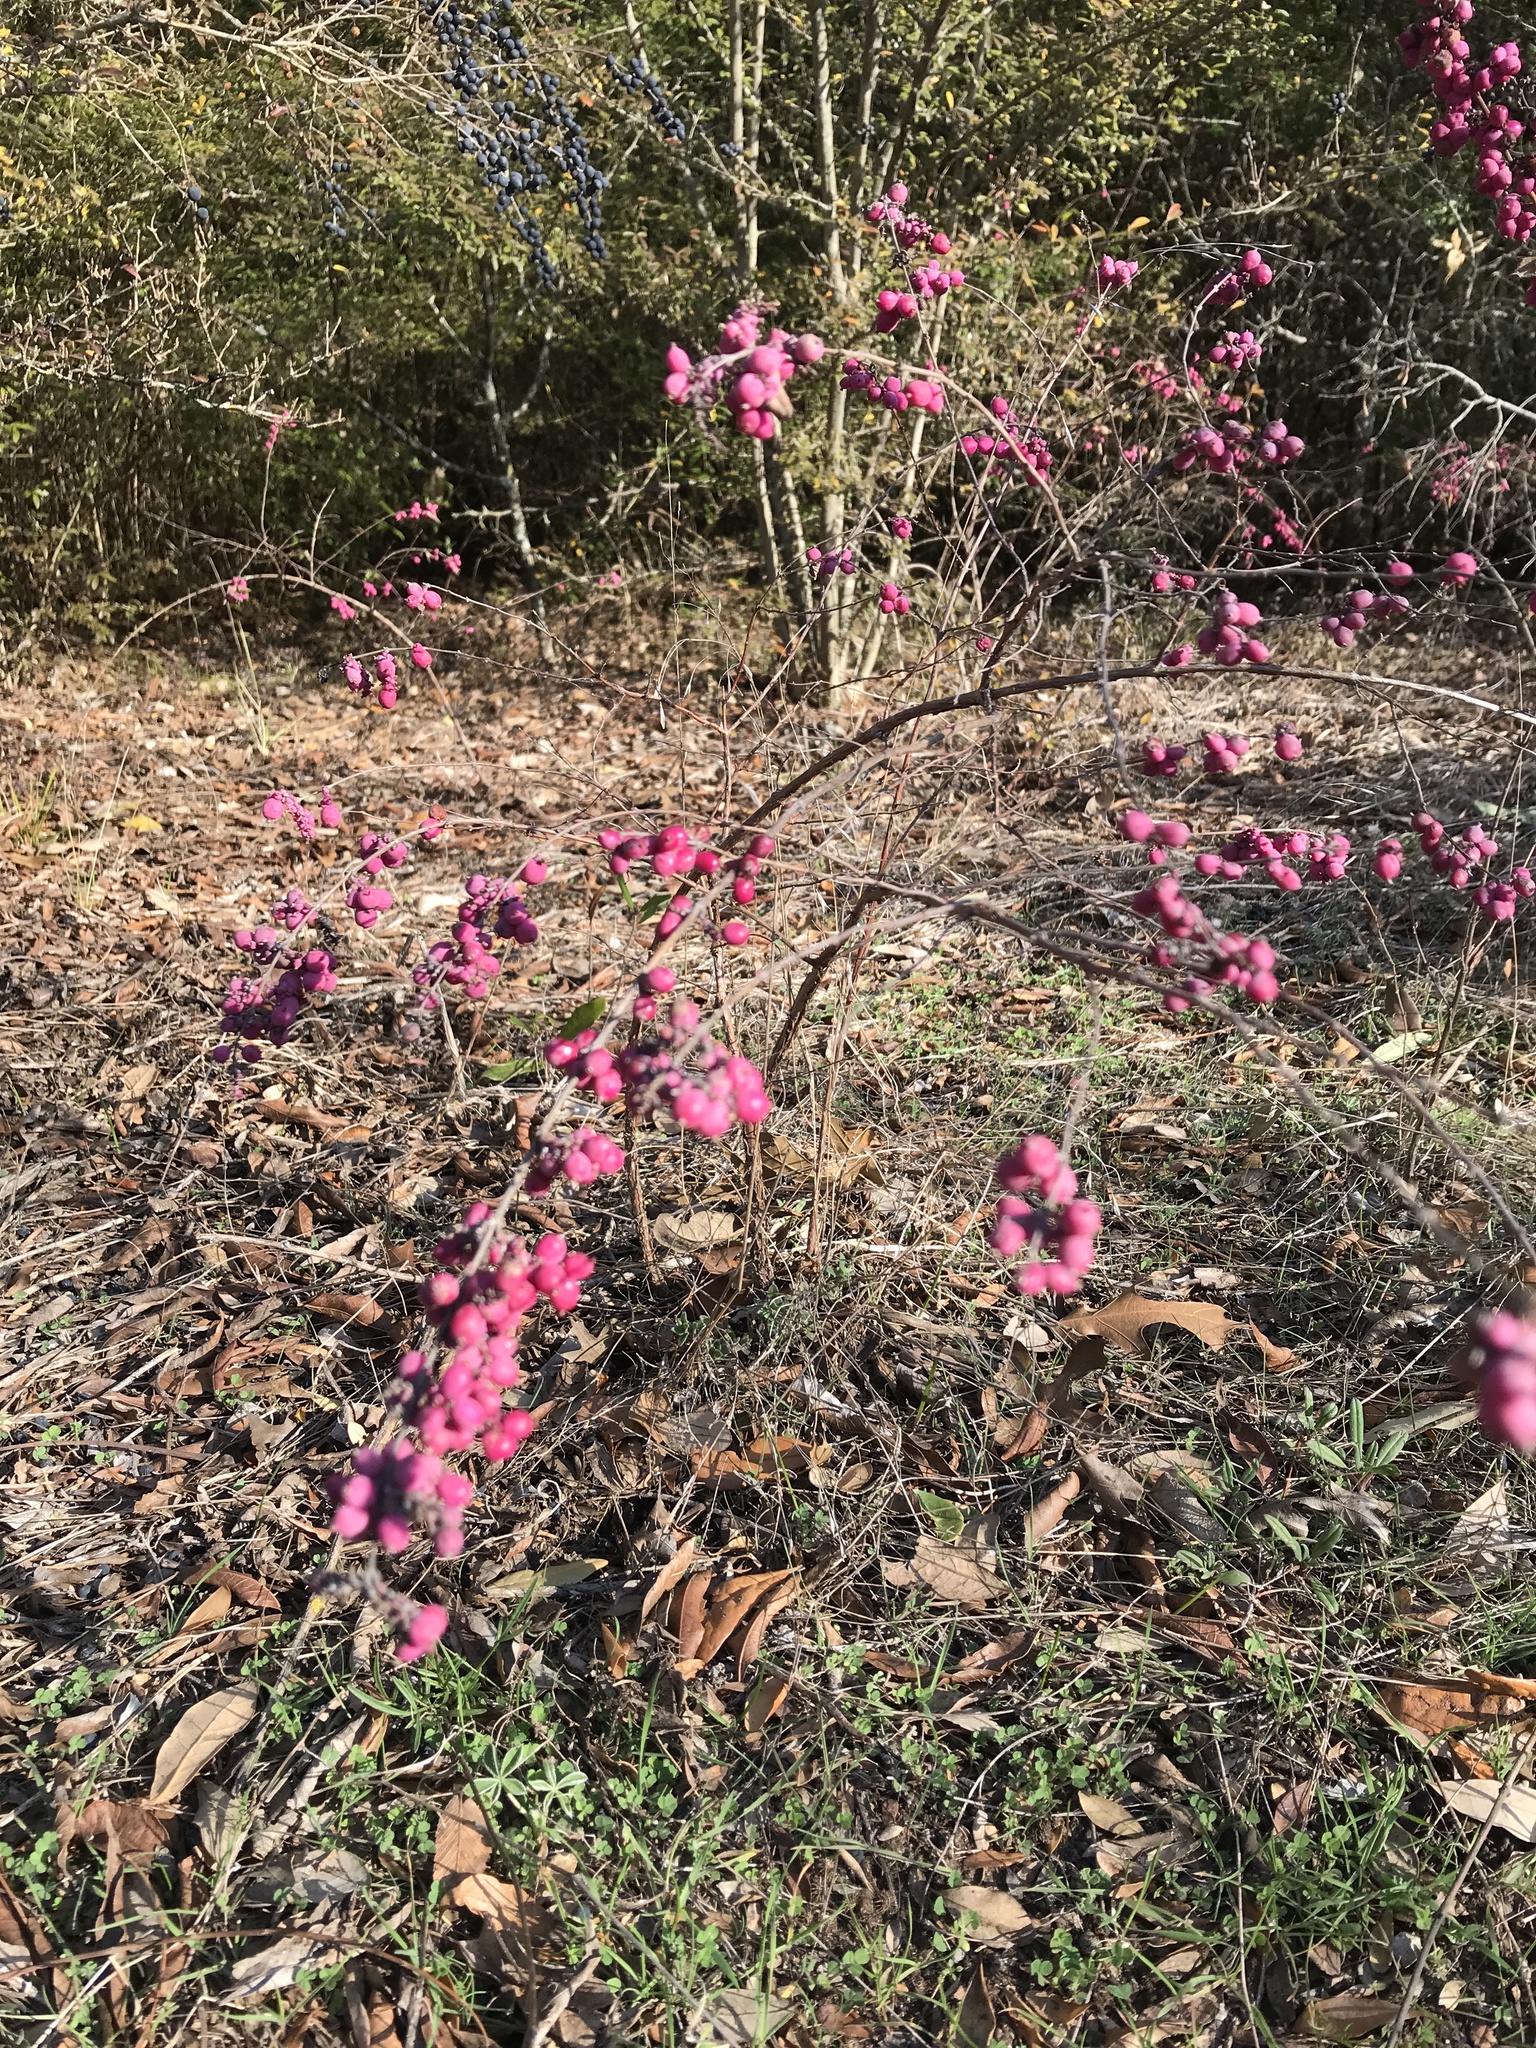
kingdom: Plantae
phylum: Tracheophyta
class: Magnoliopsida
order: Dipsacales
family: Caprifoliaceae
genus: Symphoricarpos
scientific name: Symphoricarpos orbiculatus
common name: Coralberry
